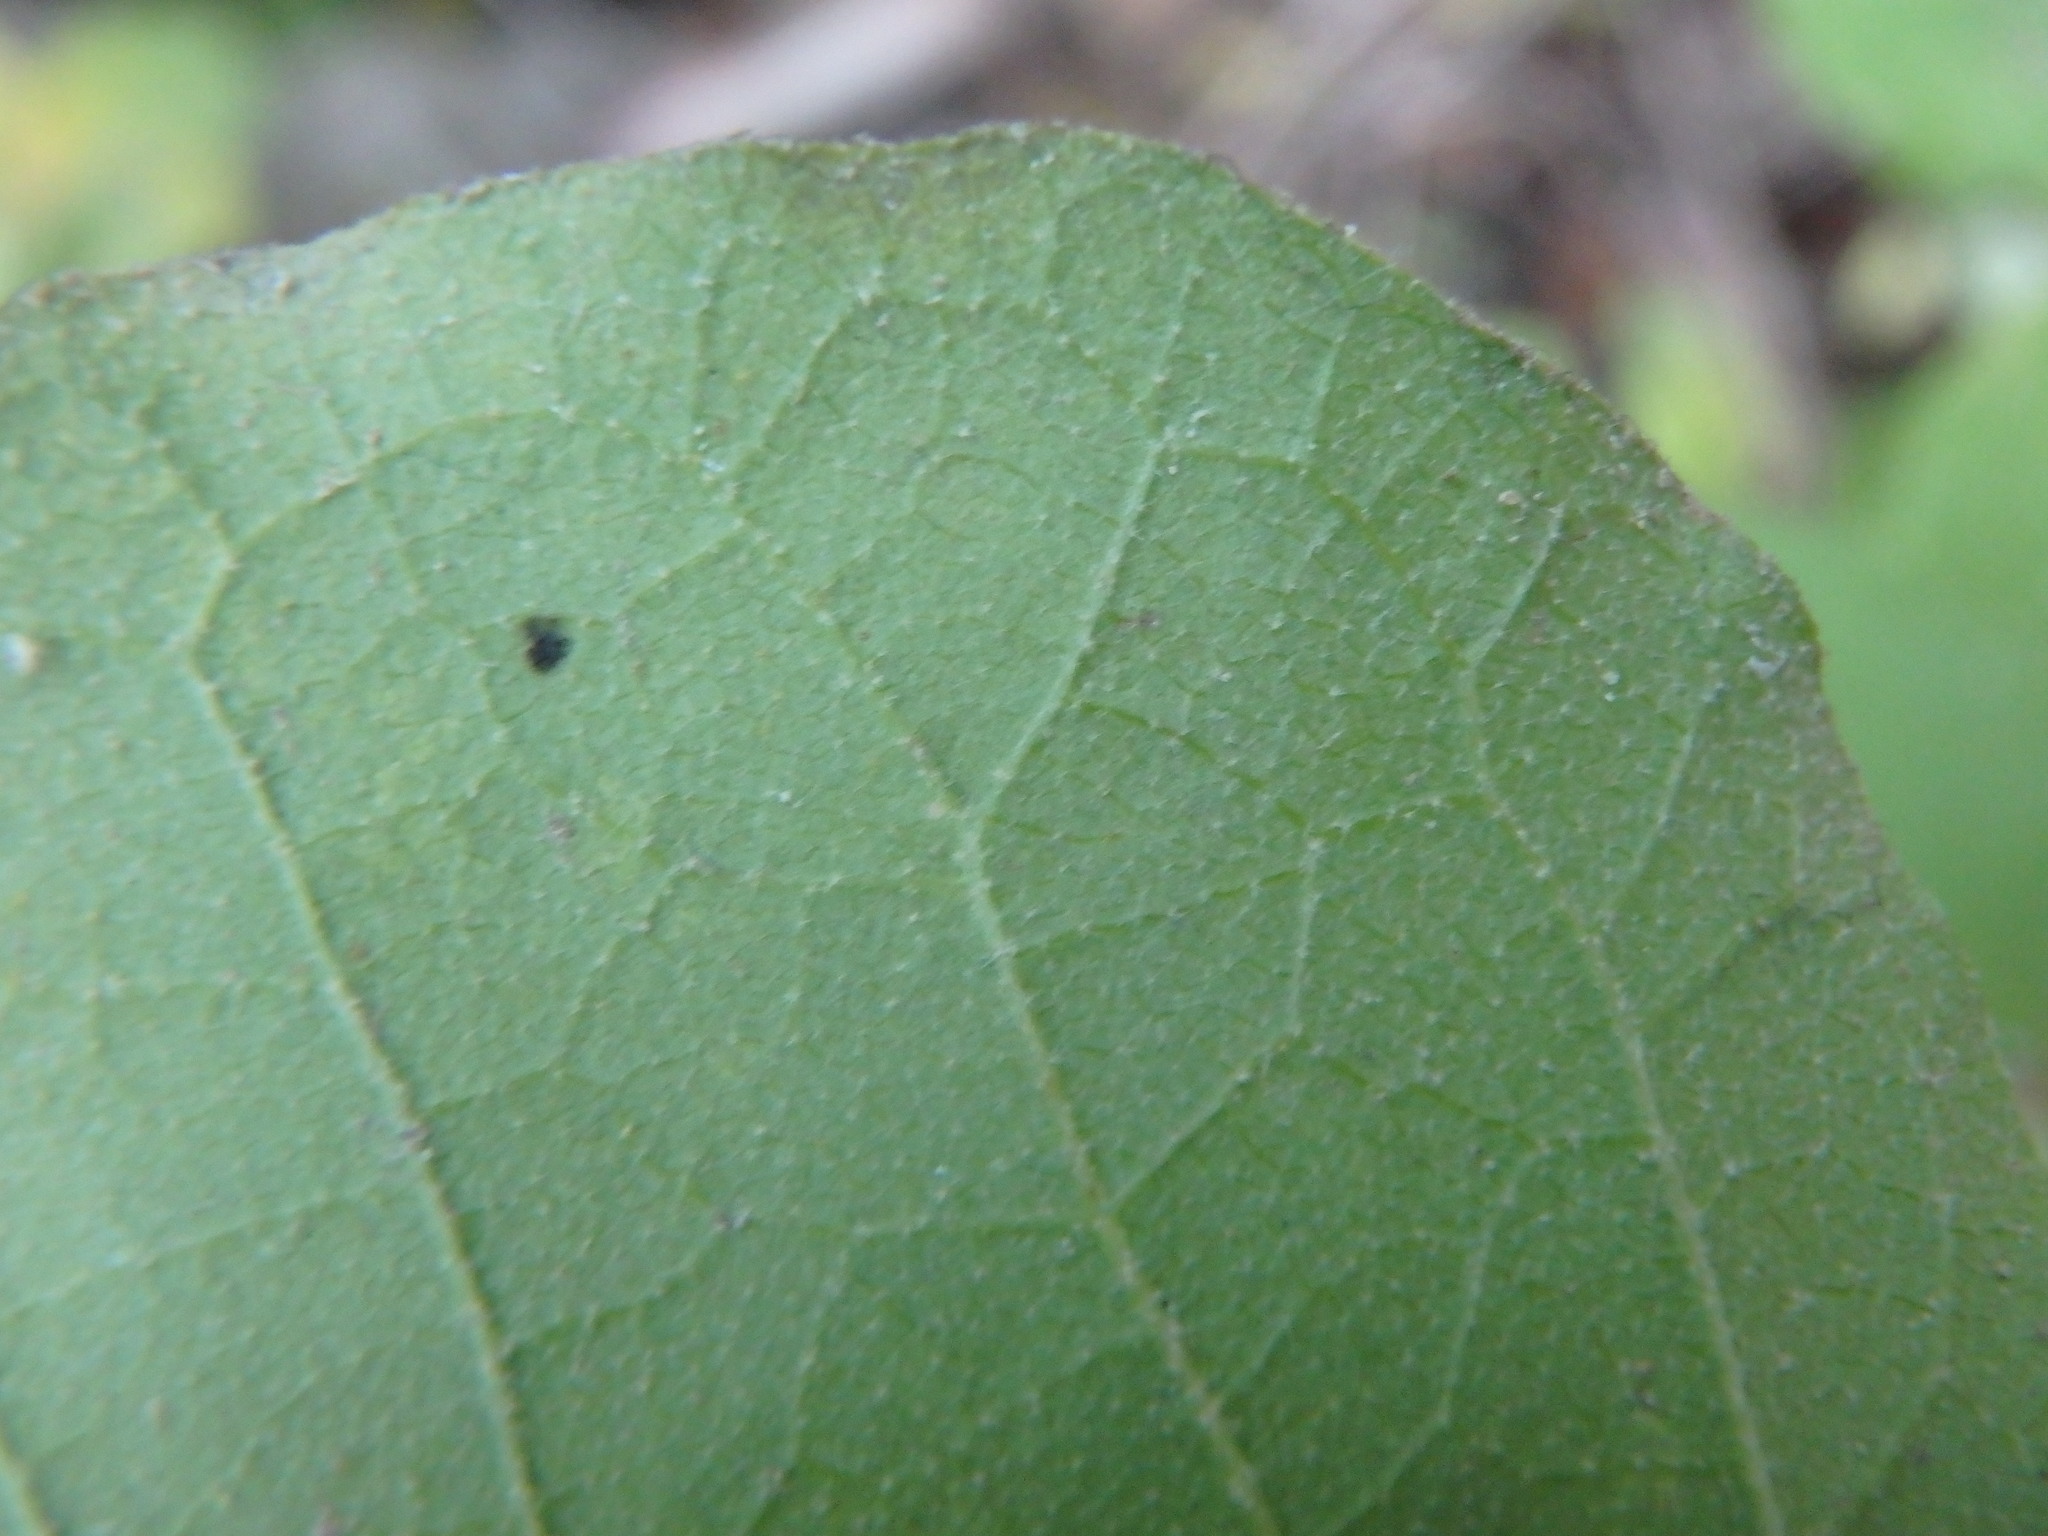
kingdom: Plantae
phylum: Tracheophyta
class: Magnoliopsida
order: Ericales
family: Styracaceae
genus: Styrax
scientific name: Styrax officinalis
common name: Storax
